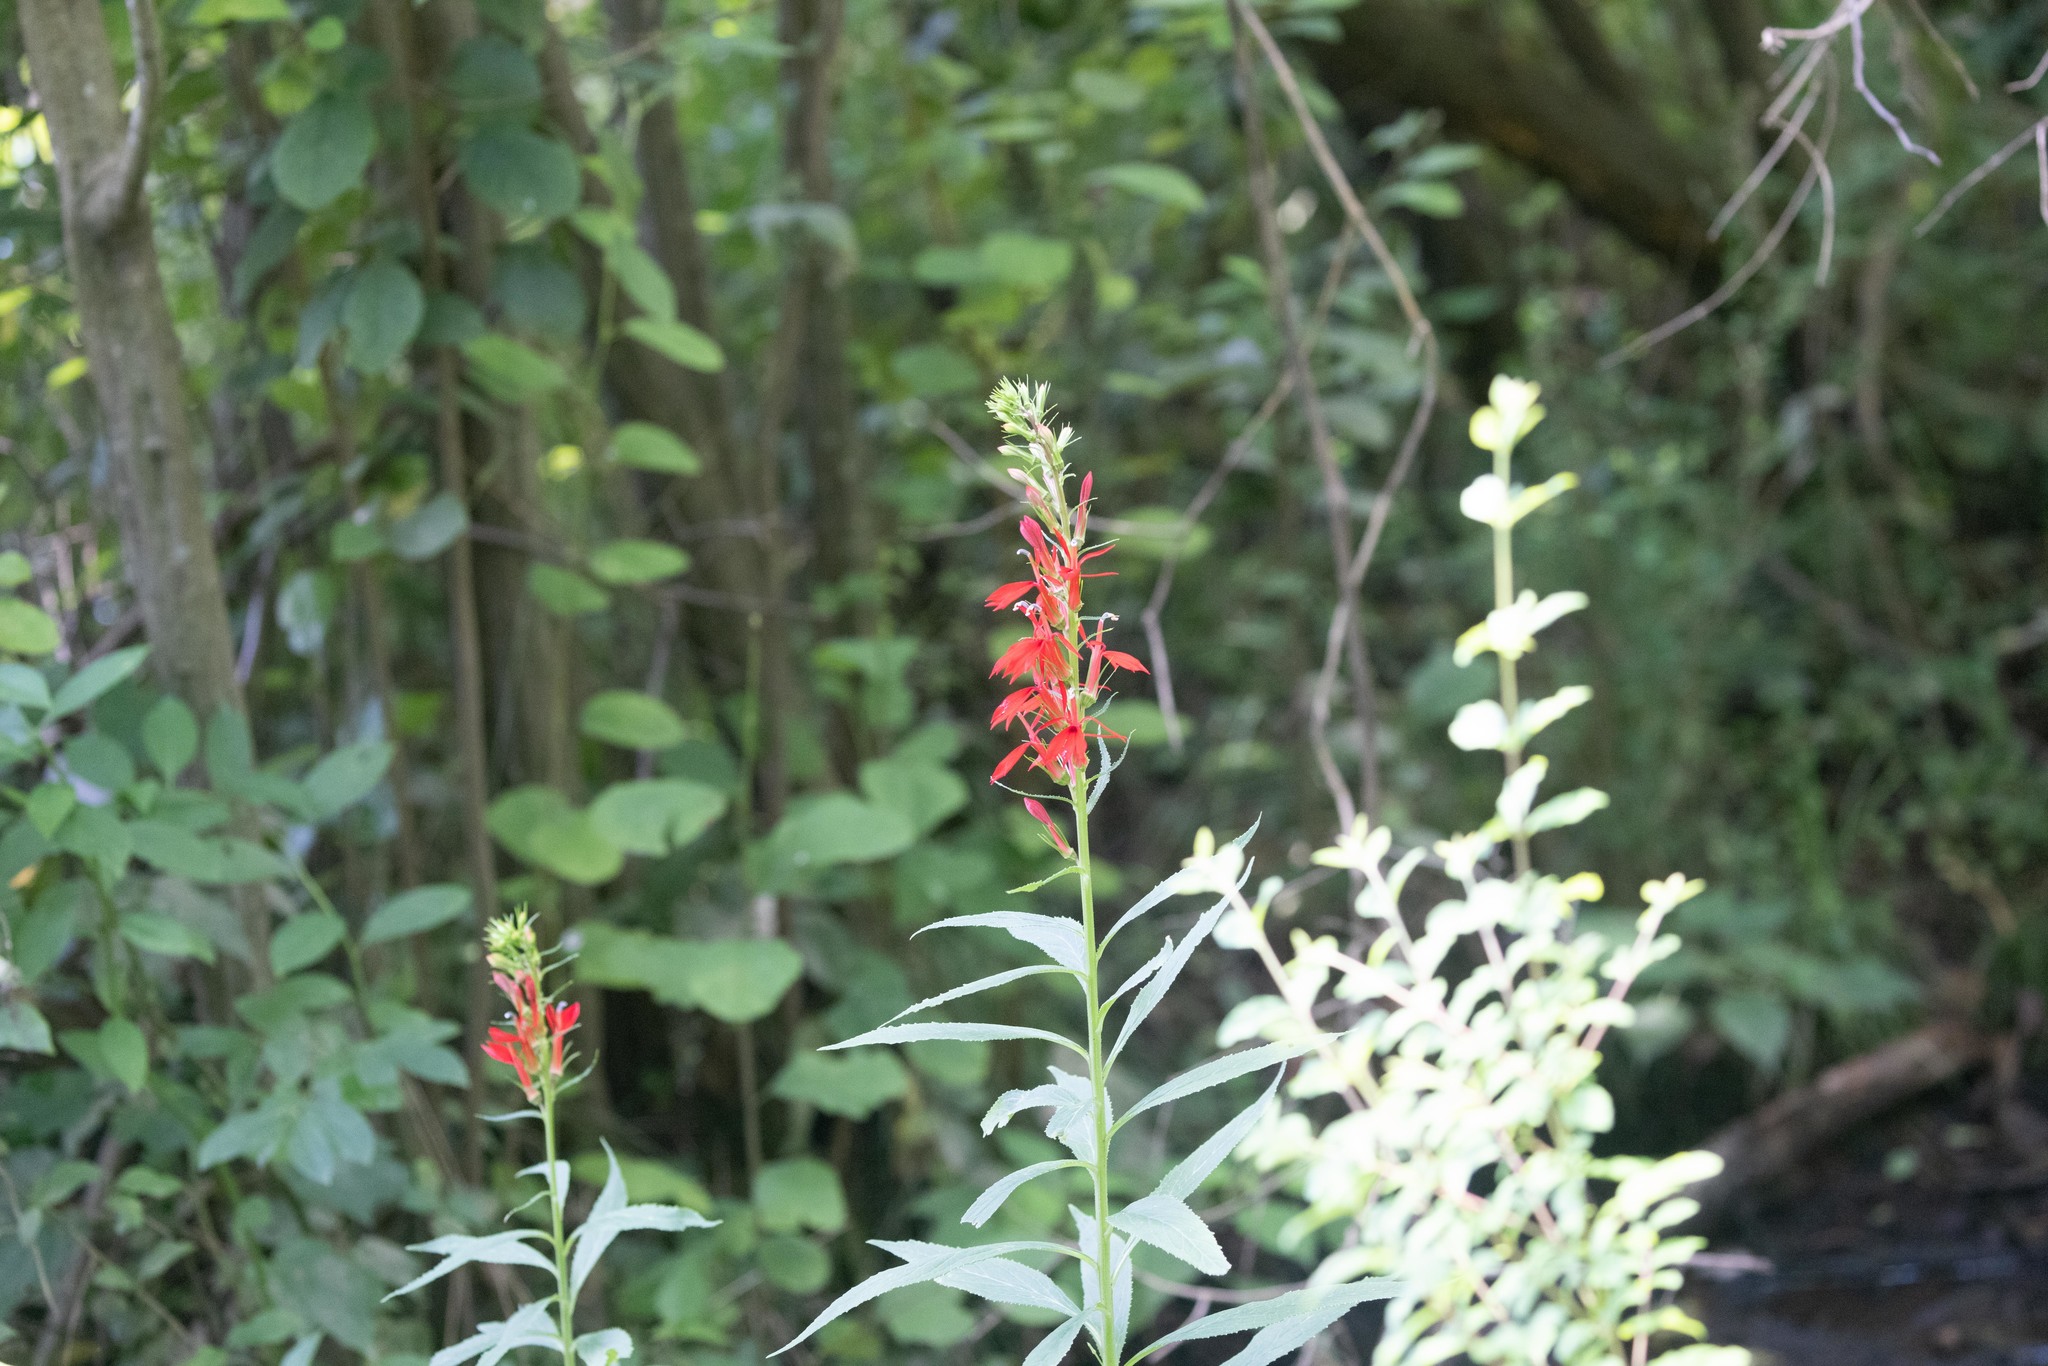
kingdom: Plantae
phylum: Tracheophyta
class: Magnoliopsida
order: Asterales
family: Campanulaceae
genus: Lobelia
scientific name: Lobelia cardinalis
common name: Cardinal flower
